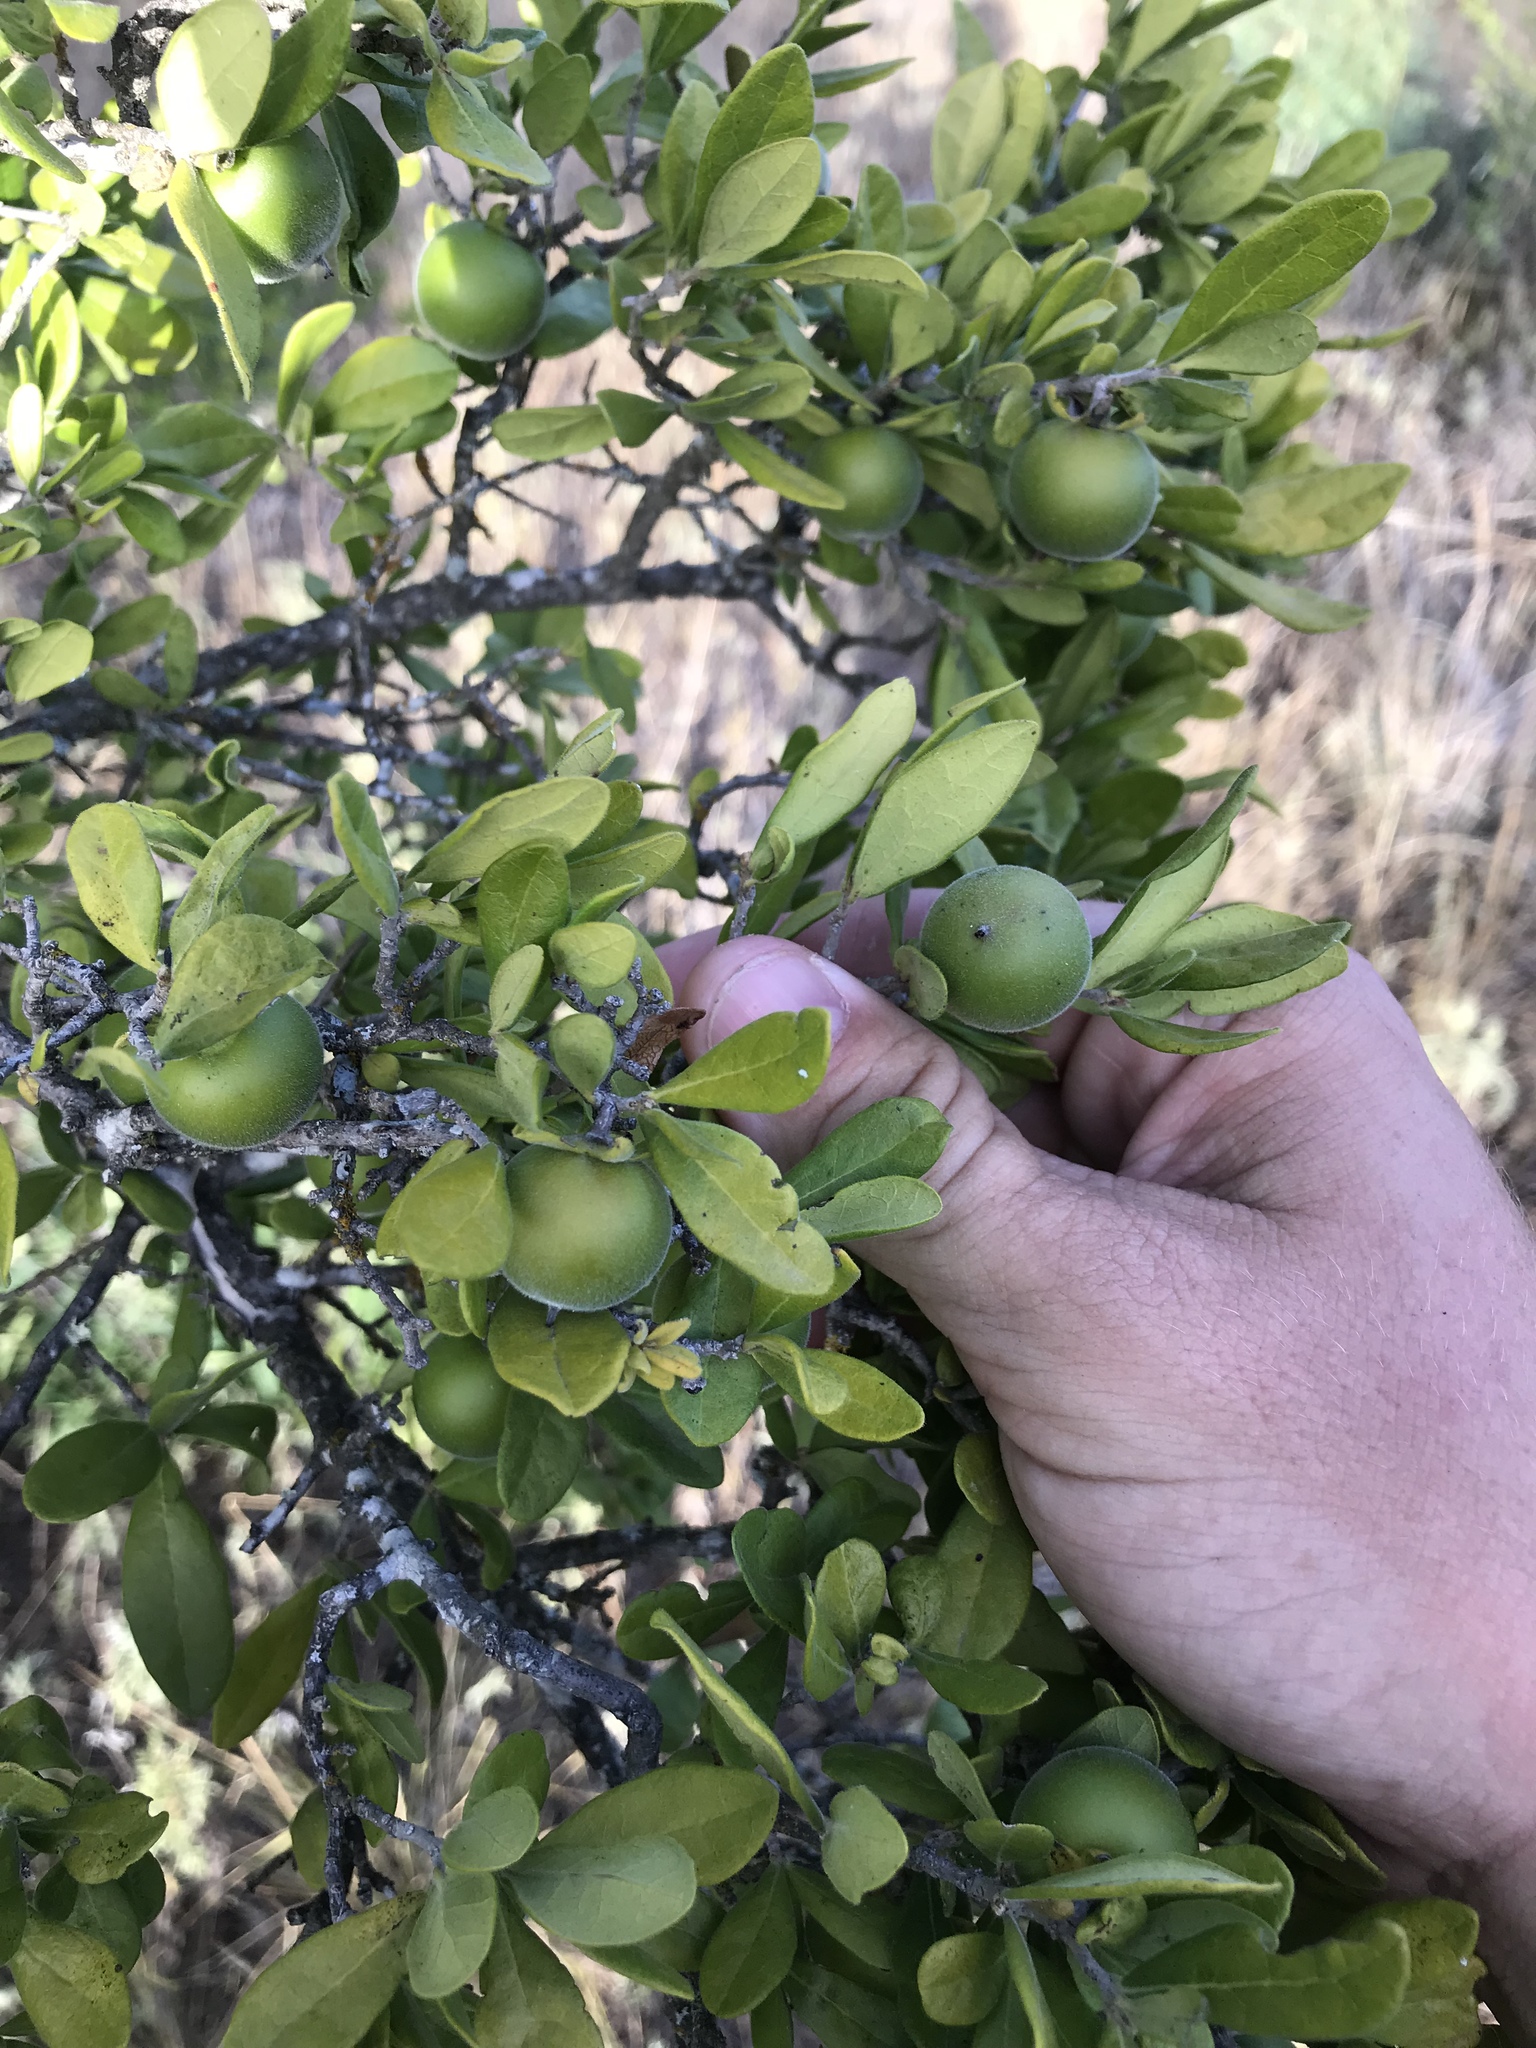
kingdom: Plantae
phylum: Tracheophyta
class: Magnoliopsida
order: Ericales
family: Ebenaceae
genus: Diospyros
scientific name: Diospyros texana
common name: Texas persimmon
